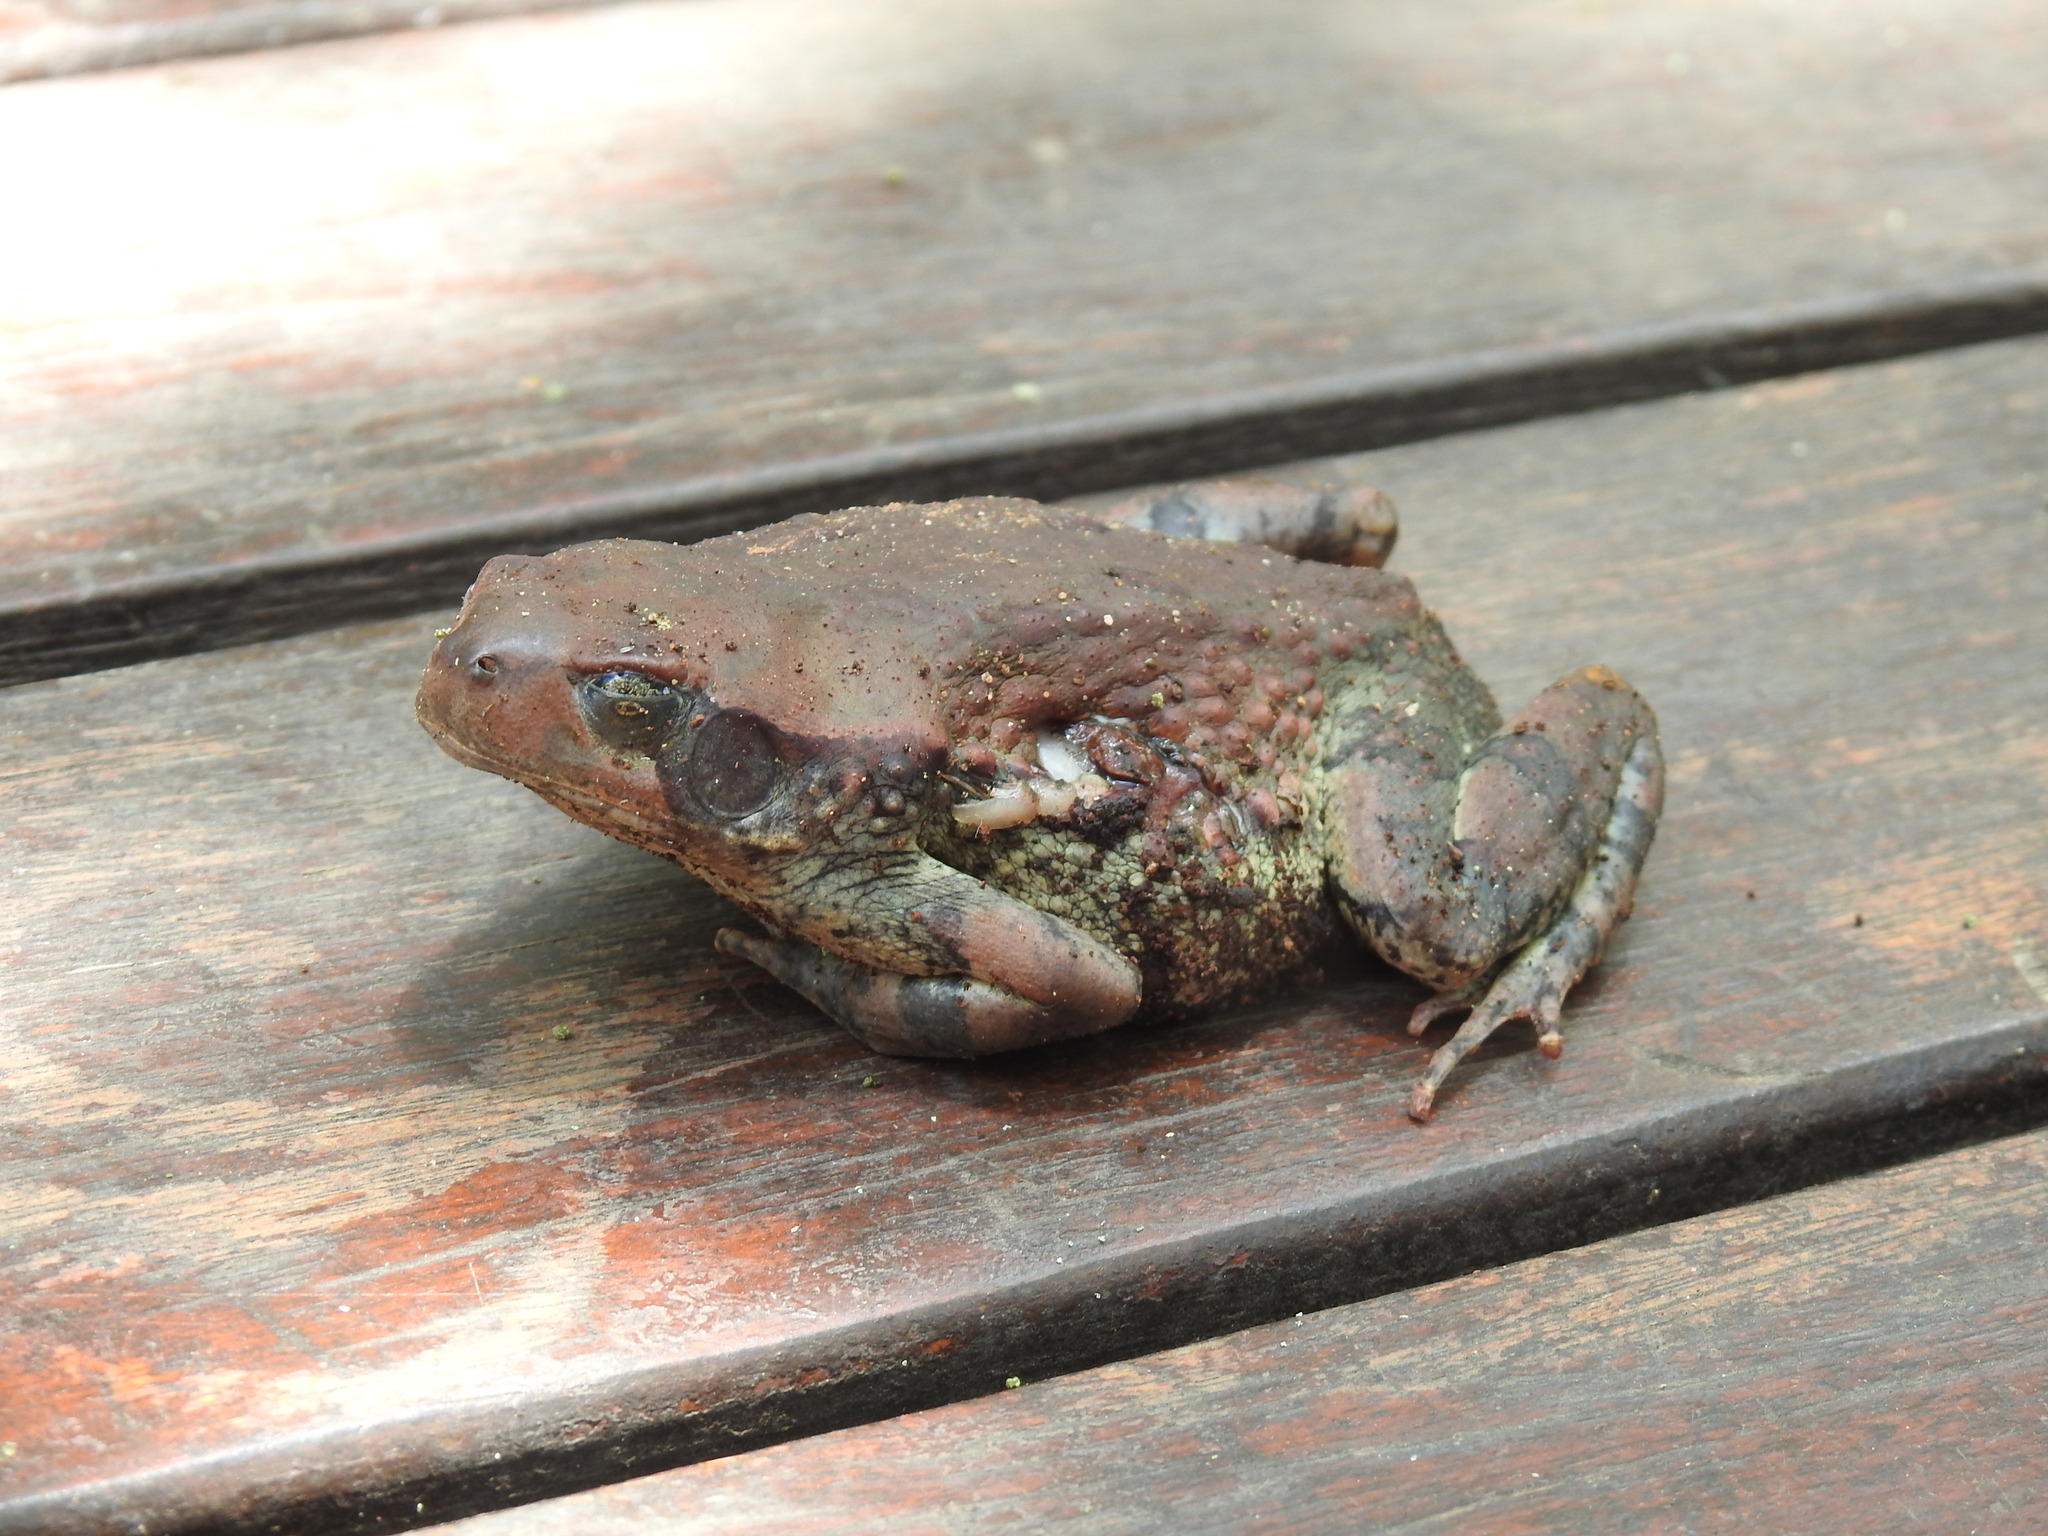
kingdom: Animalia
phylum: Chordata
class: Amphibia
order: Anura
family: Bufonidae
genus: Schismaderma
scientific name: Schismaderma carens
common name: African split-skin toad
